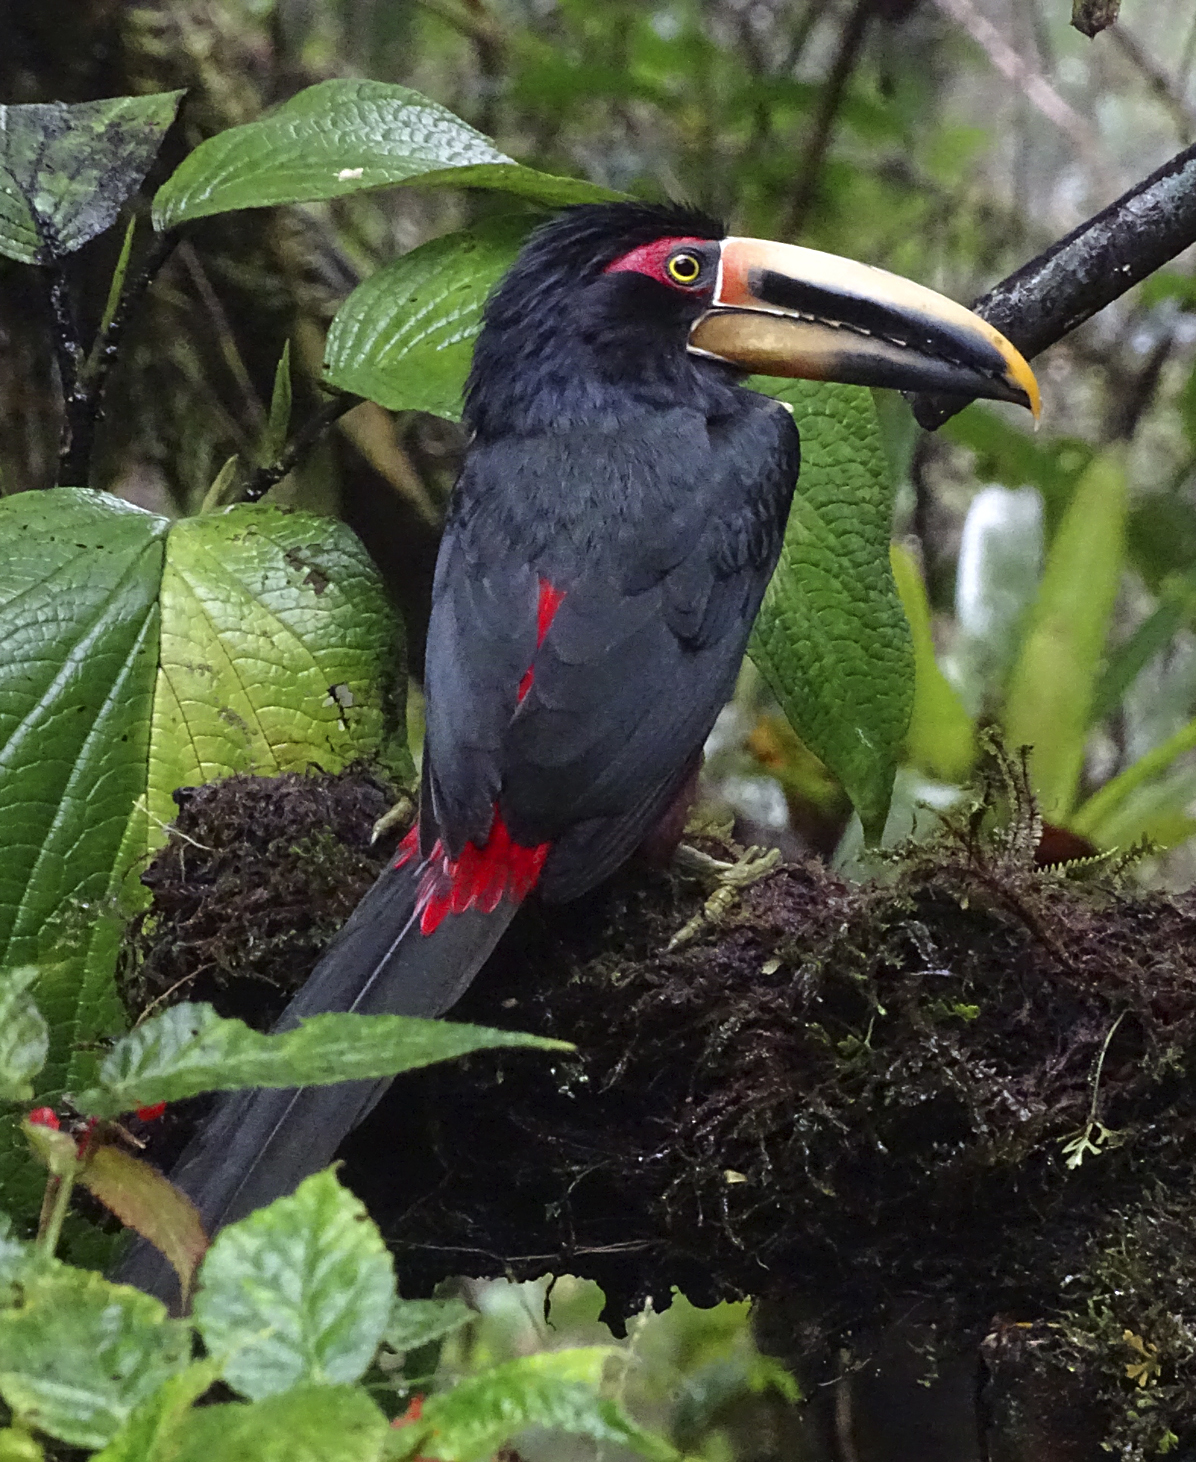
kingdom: Animalia
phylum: Chordata
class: Aves
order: Piciformes
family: Ramphastidae
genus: Pteroglossus
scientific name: Pteroglossus torquatus
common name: Collared aracari
